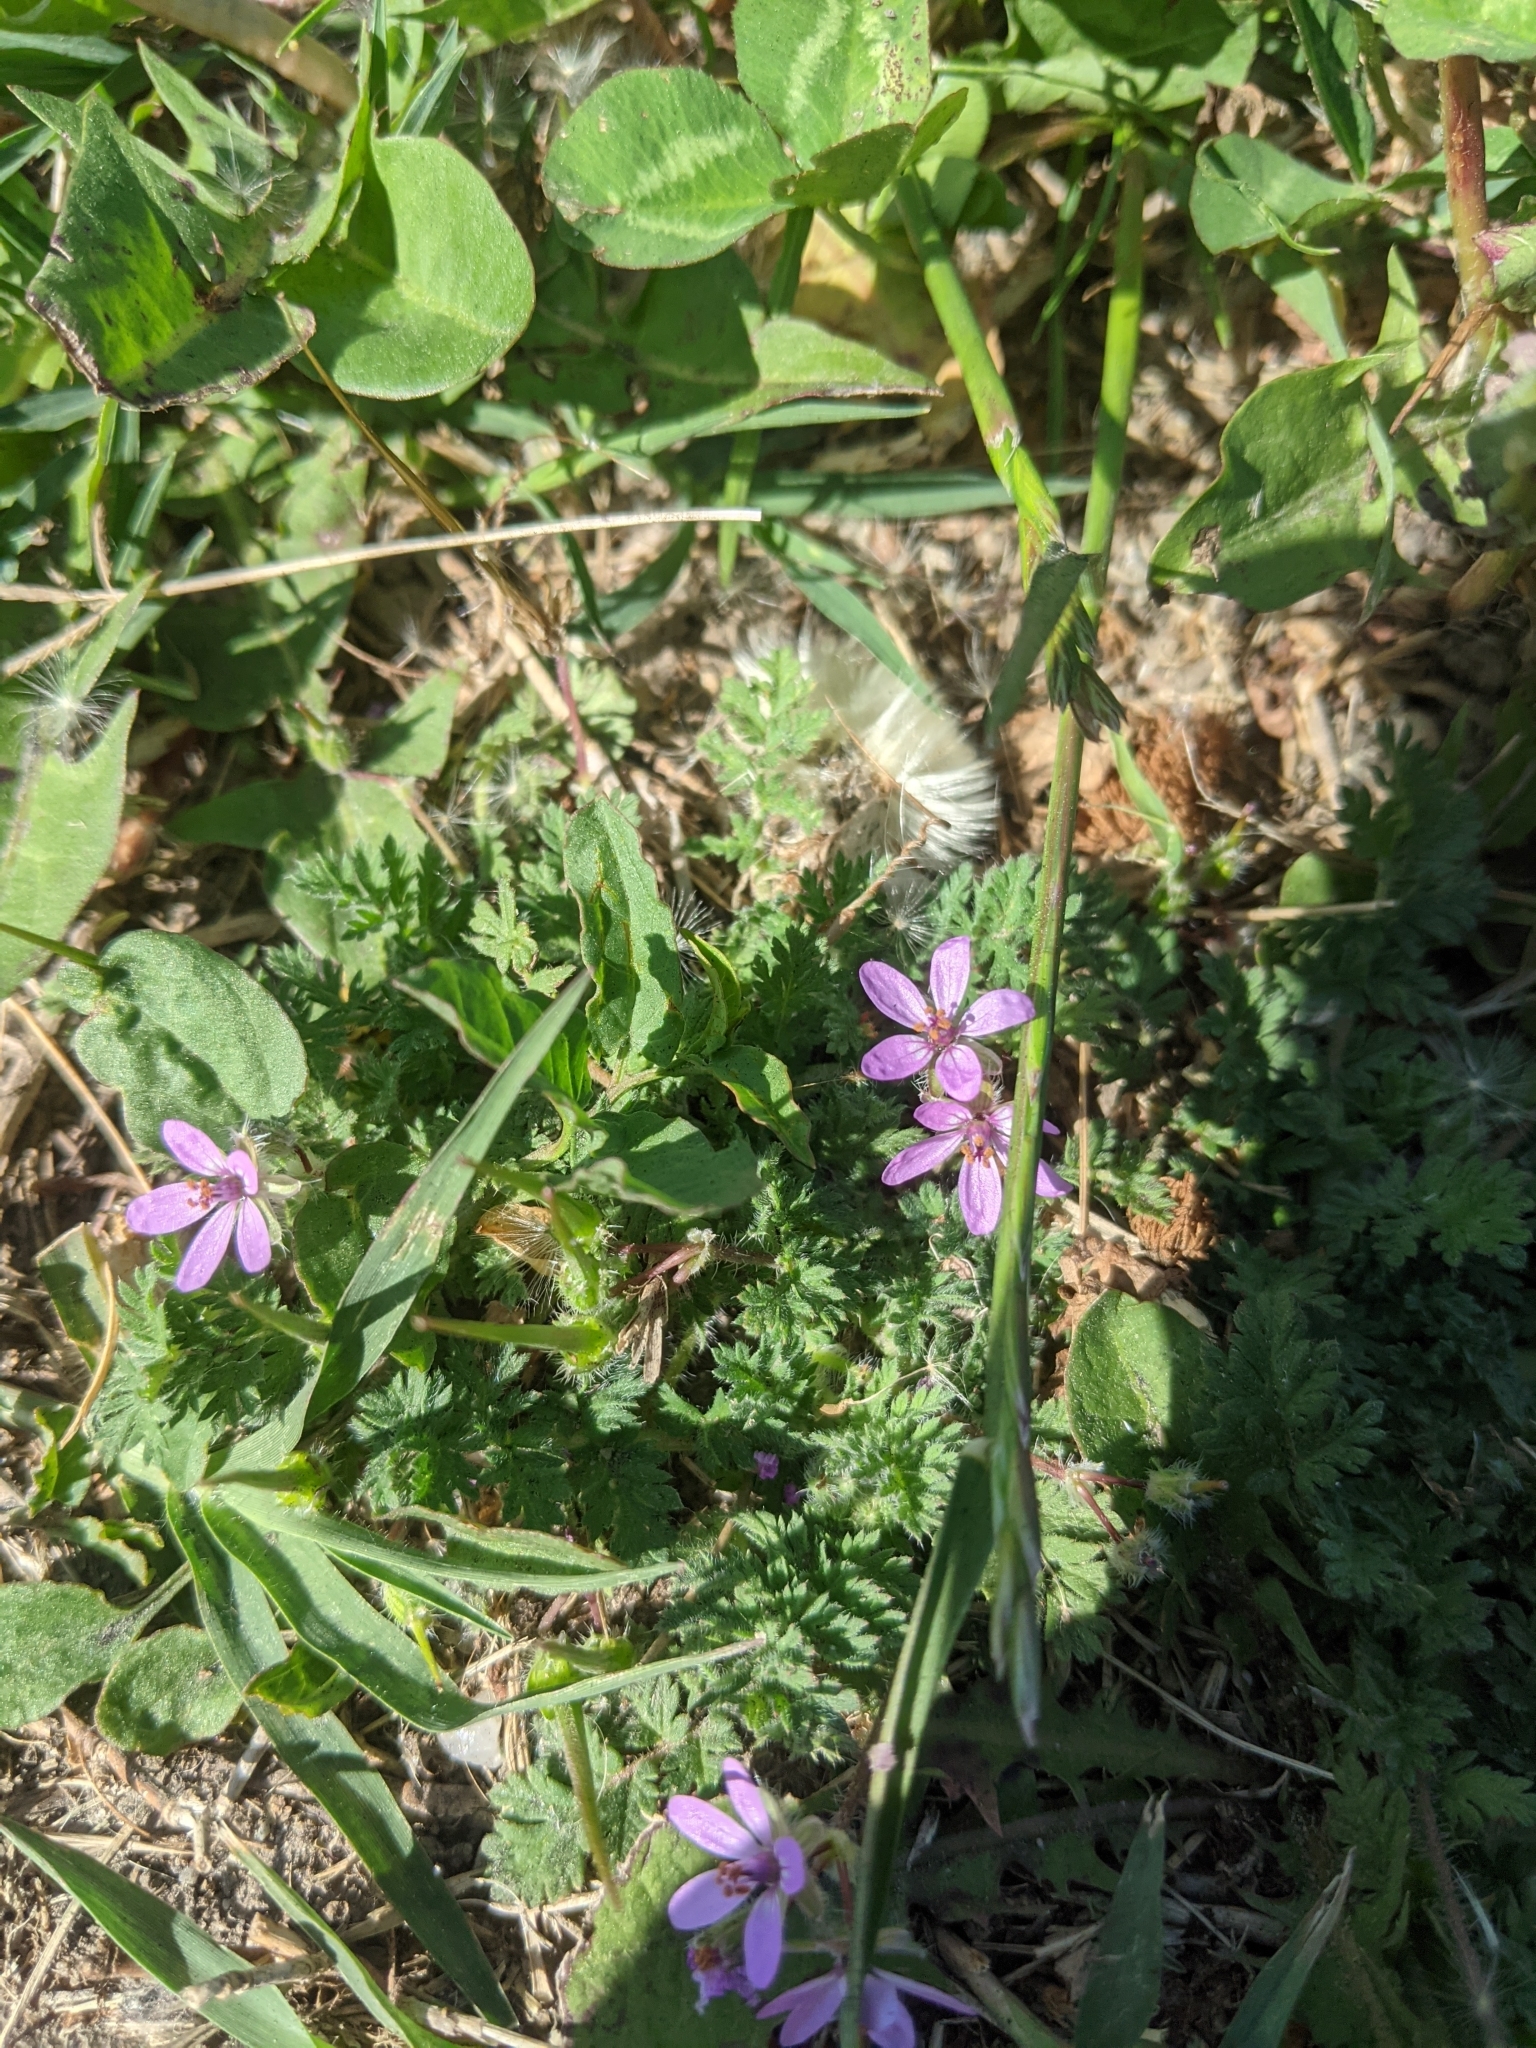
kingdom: Plantae
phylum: Tracheophyta
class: Magnoliopsida
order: Geraniales
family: Geraniaceae
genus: Erodium
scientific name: Erodium cicutarium
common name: Common stork's-bill
